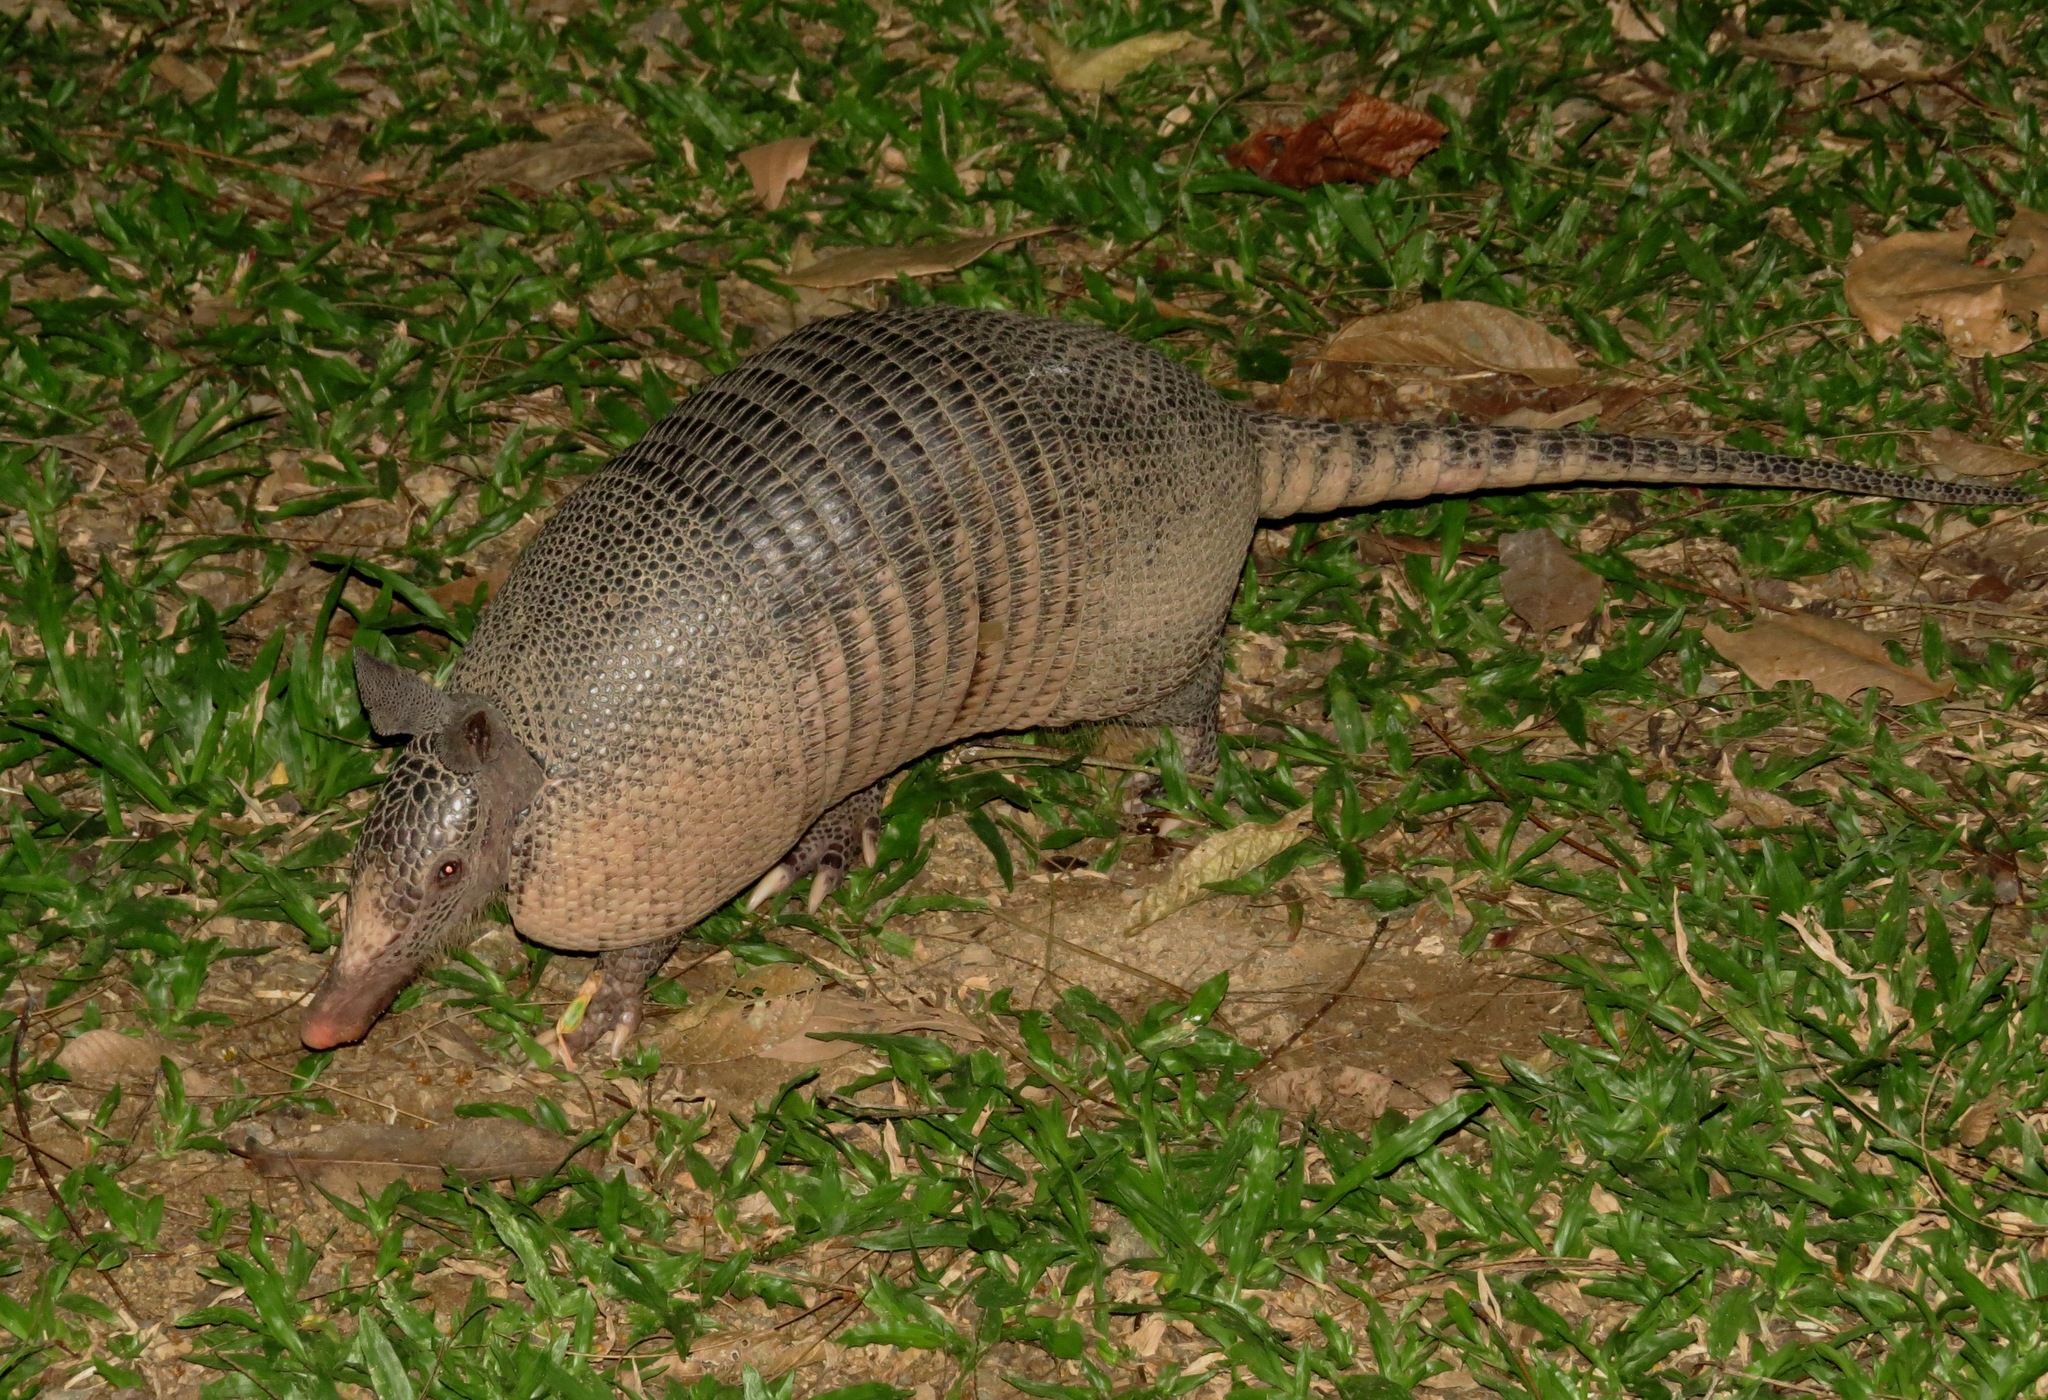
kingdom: Animalia
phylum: Chordata
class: Mammalia
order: Cingulata
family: Dasypodidae
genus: Dasypus
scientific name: Dasypus novemcinctus
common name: Nine-banded armadillo
